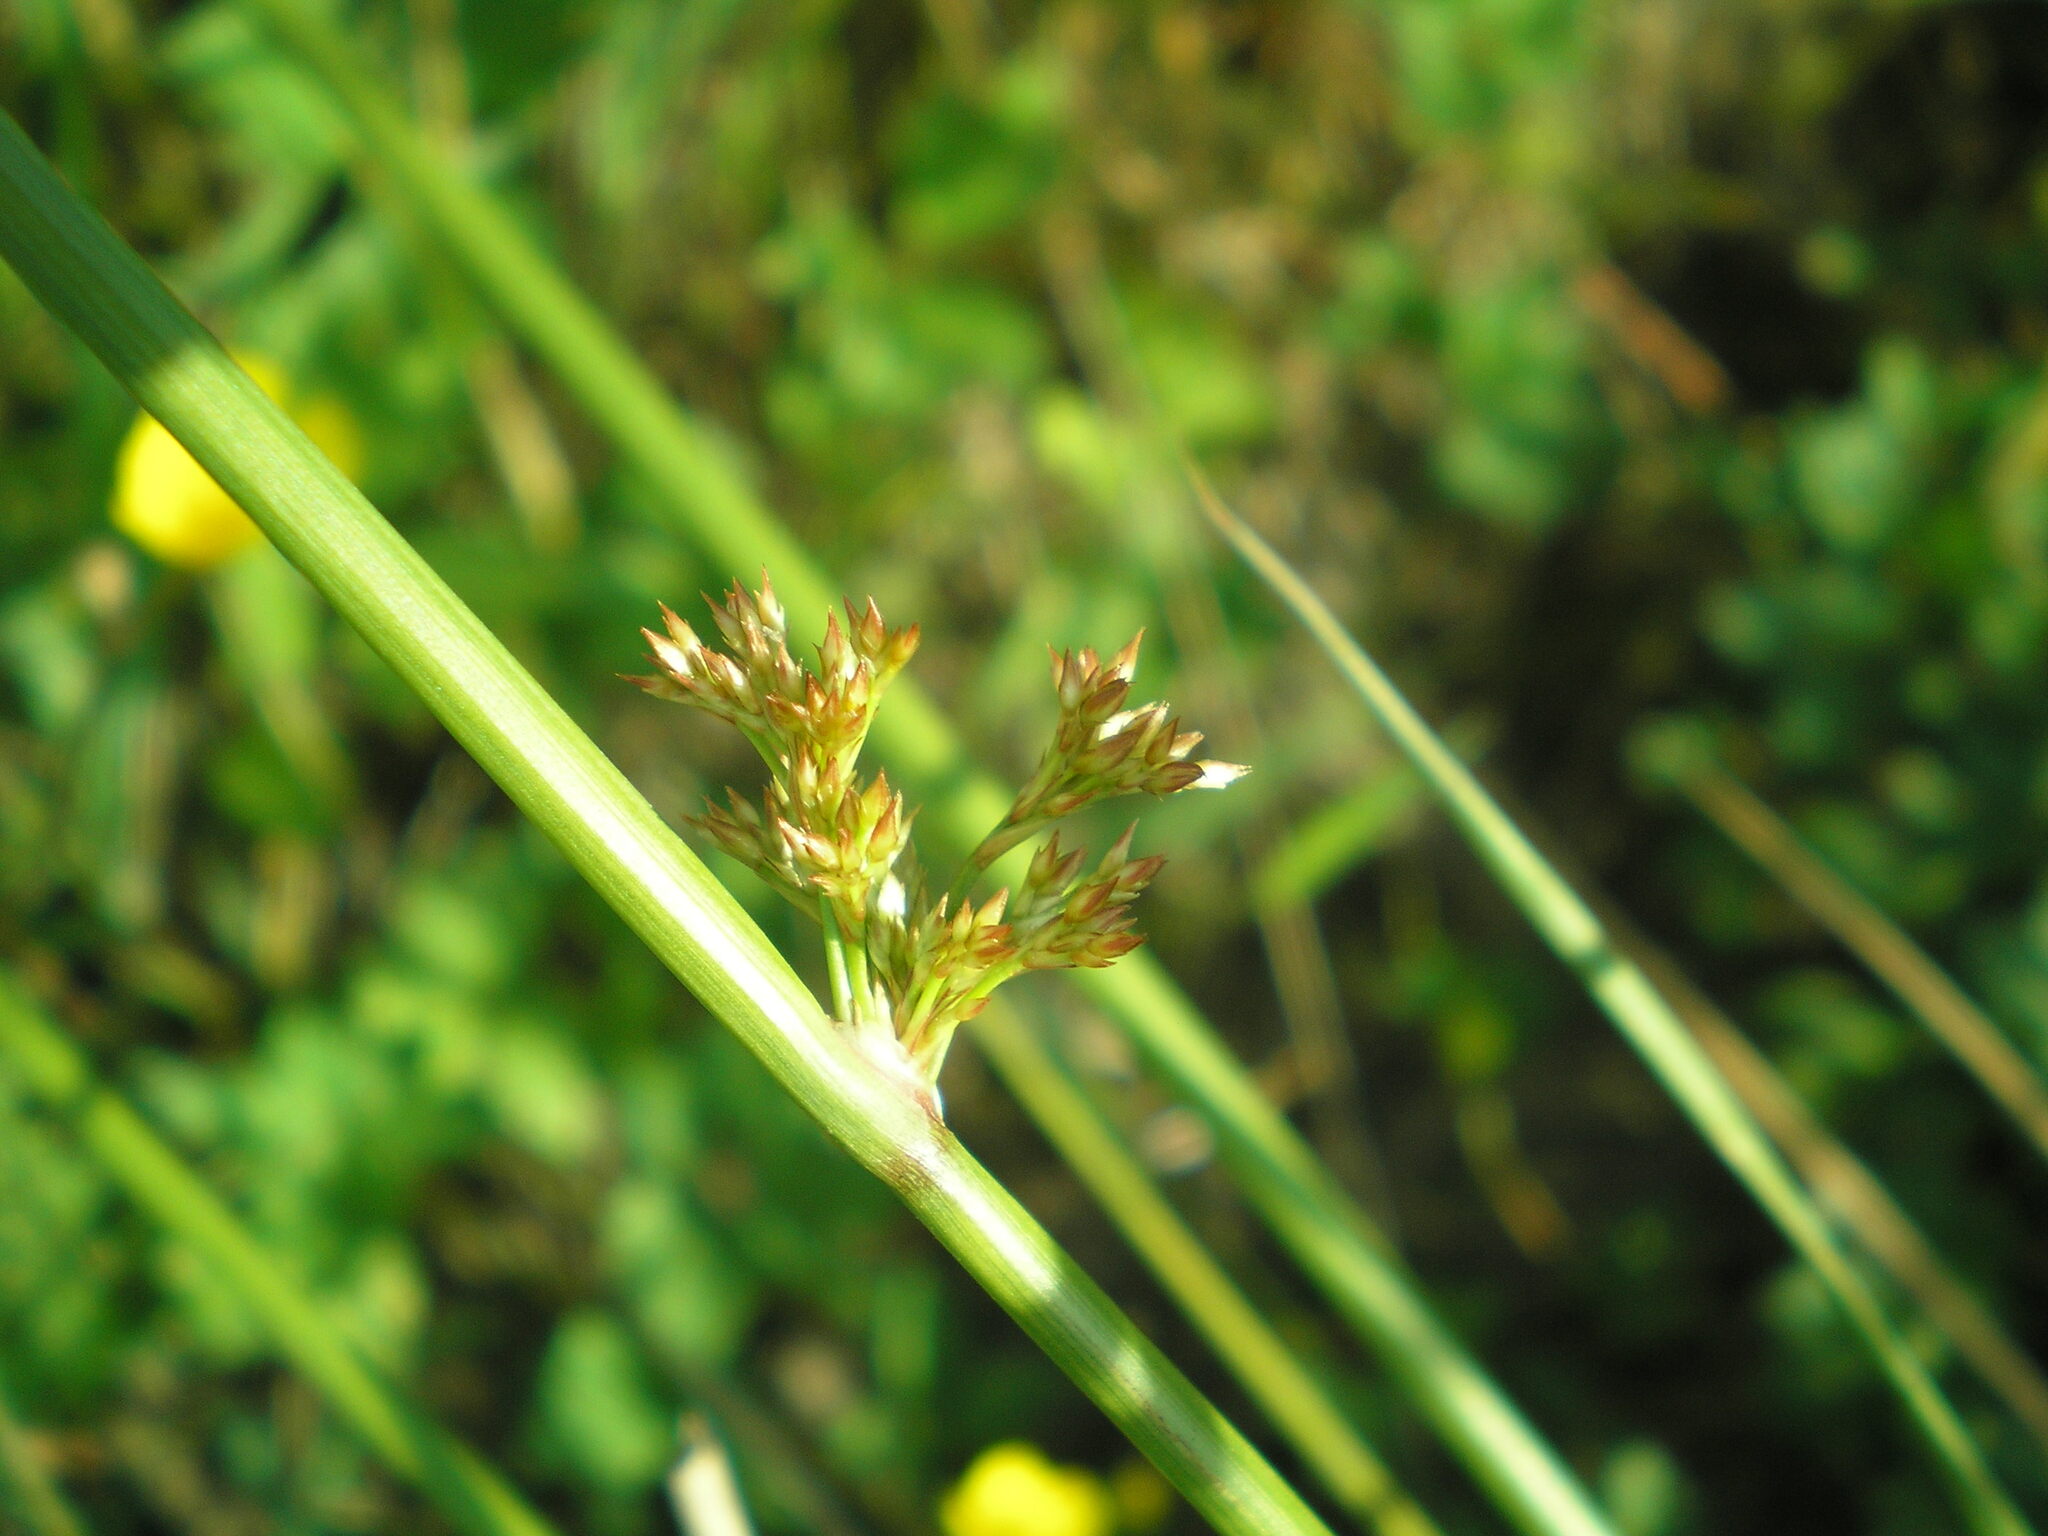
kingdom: Plantae
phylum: Tracheophyta
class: Liliopsida
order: Poales
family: Juncaceae
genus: Juncus
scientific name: Juncus effusus
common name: Soft rush
